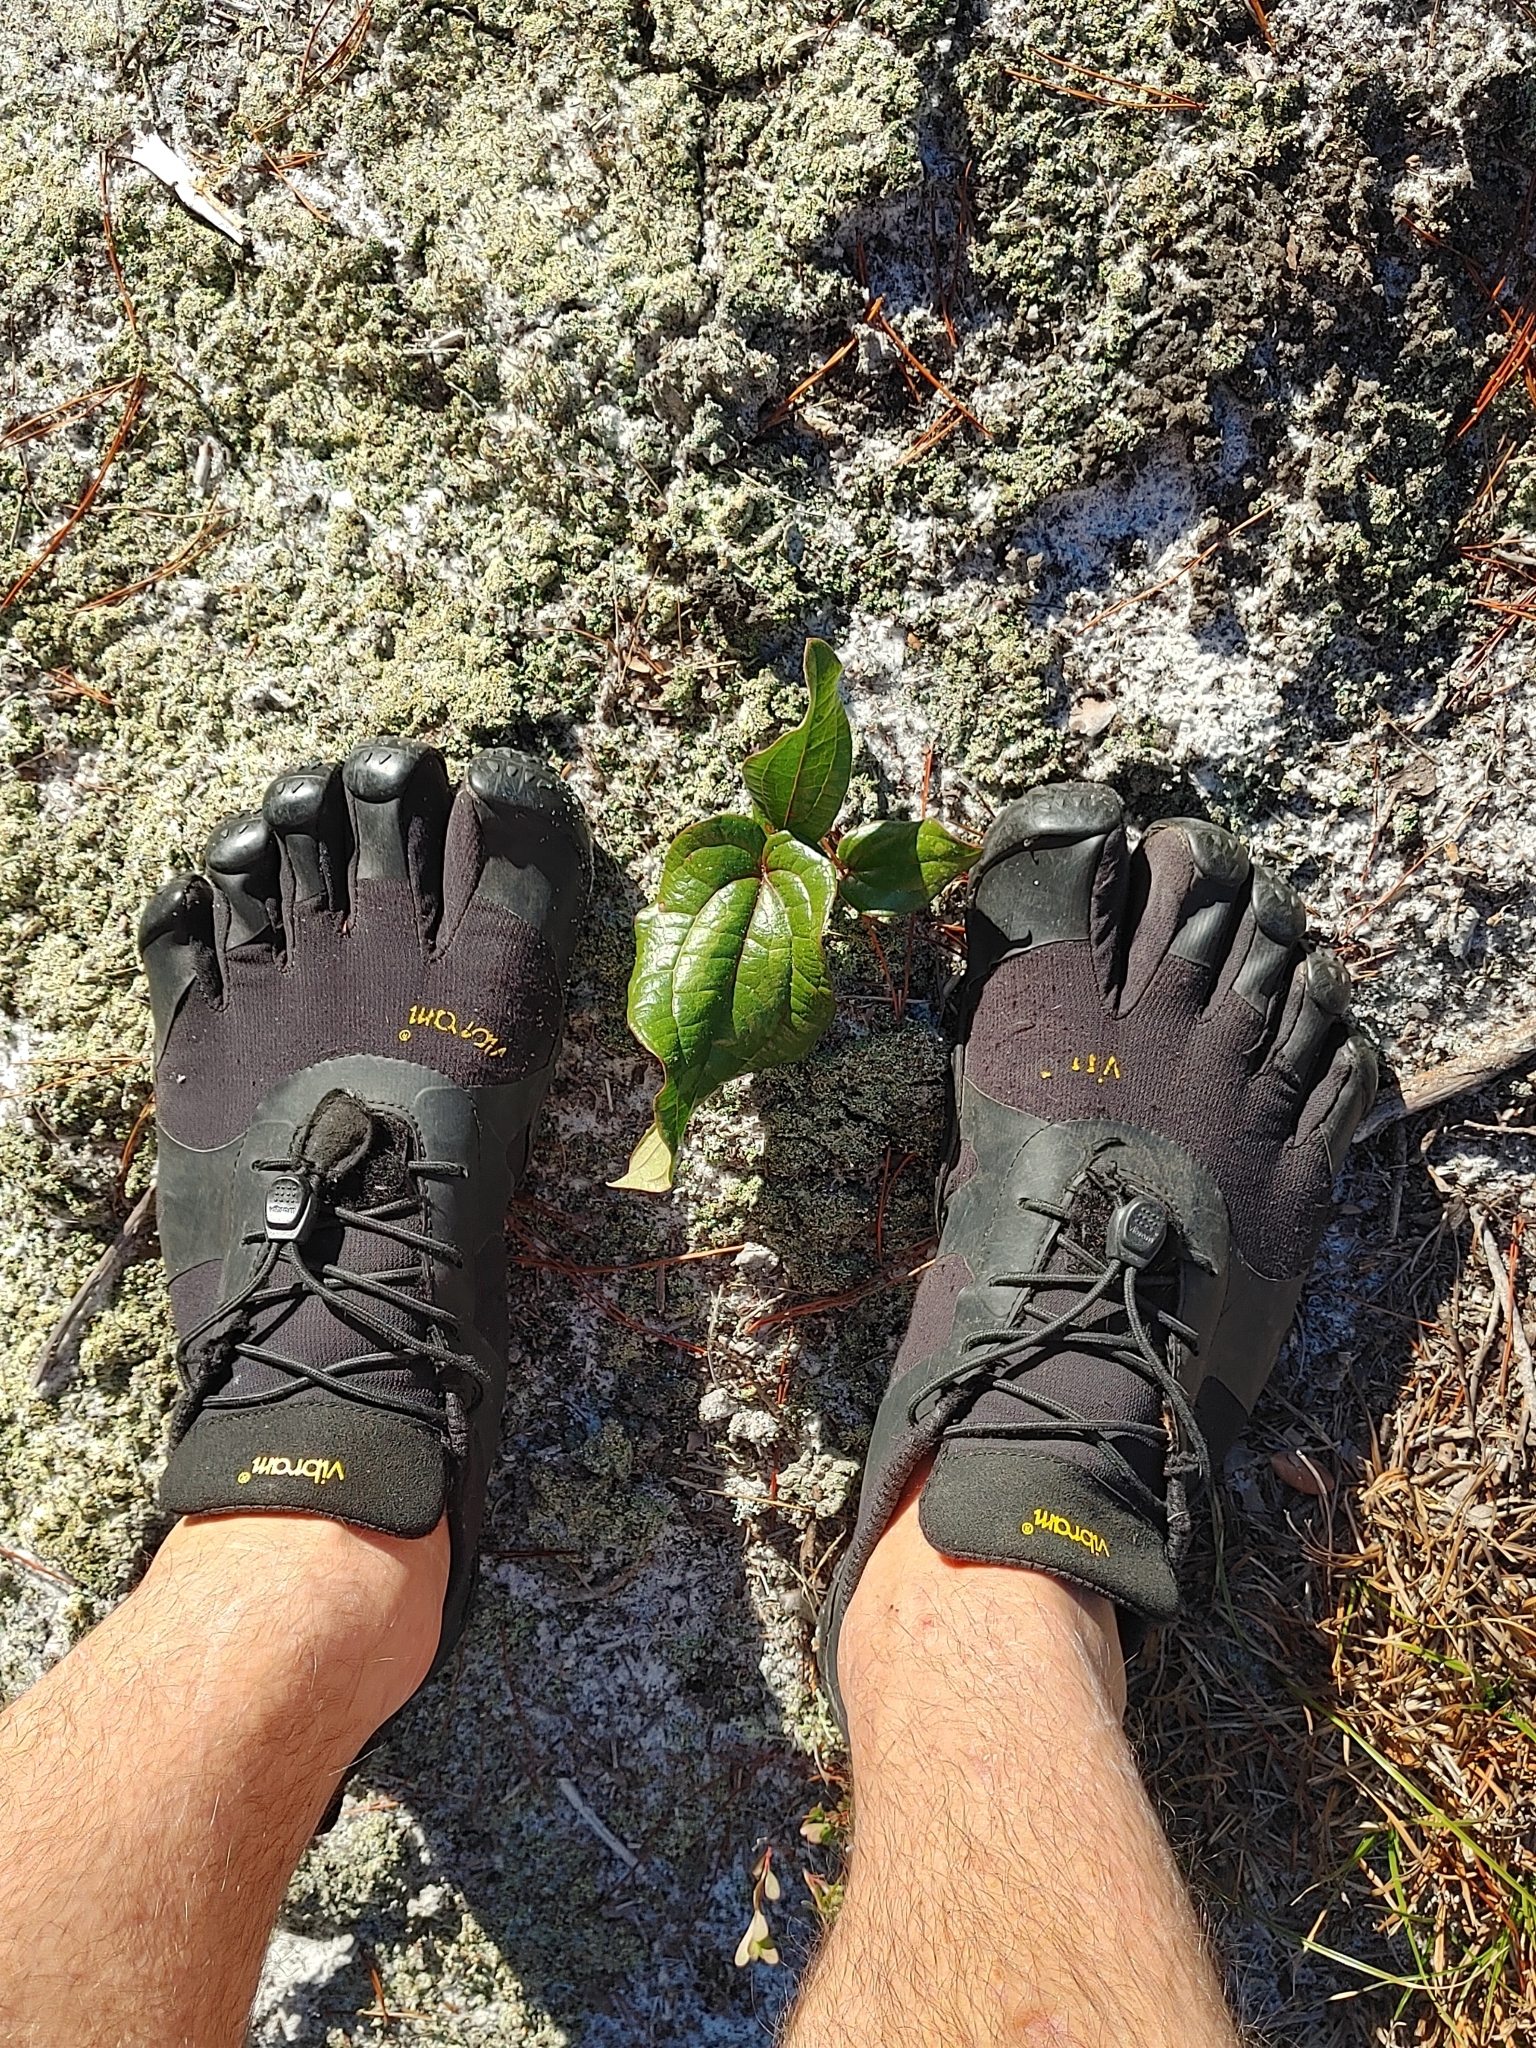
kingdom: Plantae
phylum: Tracheophyta
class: Liliopsida
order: Liliales
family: Smilacaceae
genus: Smilax
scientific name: Smilax pumila
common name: Sarsaparilla-vine
